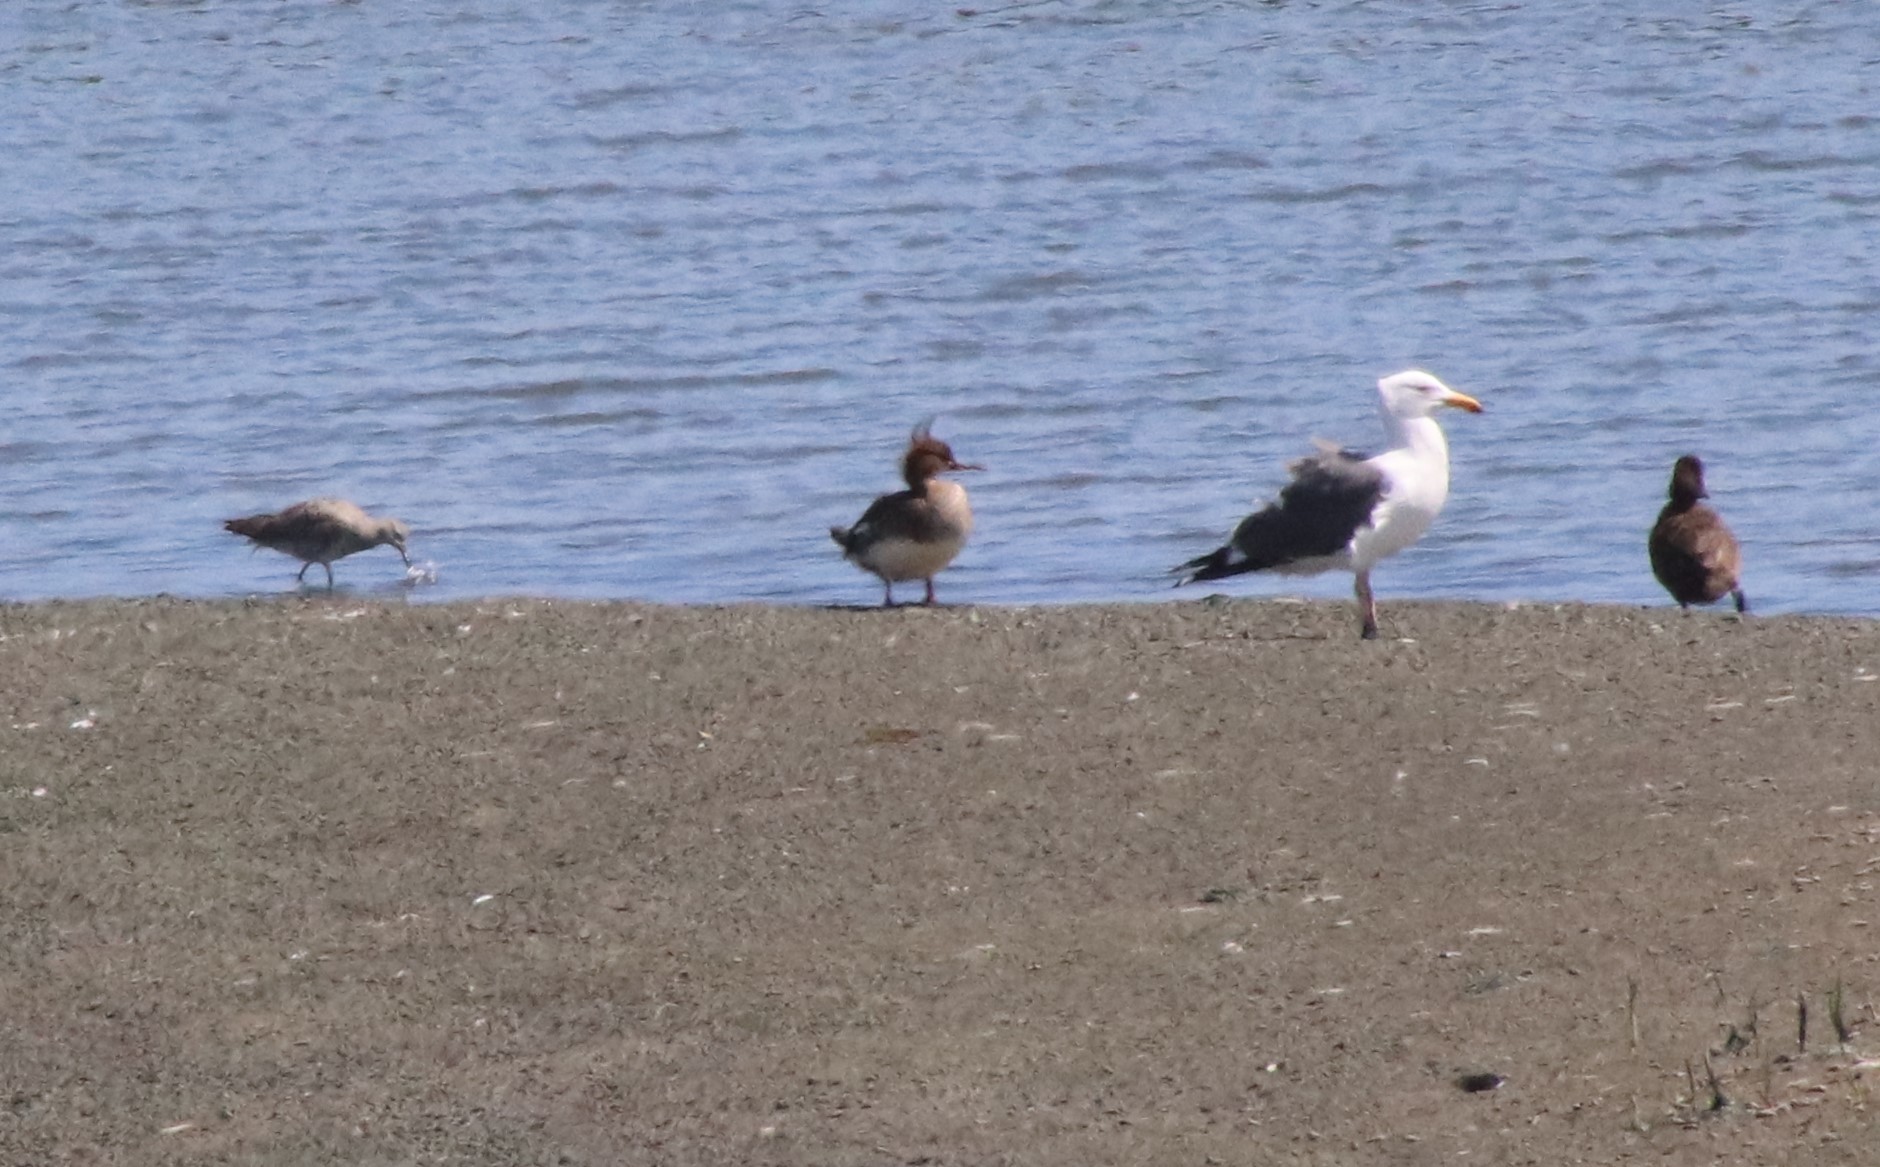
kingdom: Animalia
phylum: Chordata
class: Aves
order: Anseriformes
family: Anatidae
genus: Mergus
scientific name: Mergus serrator
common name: Red-breasted merganser
